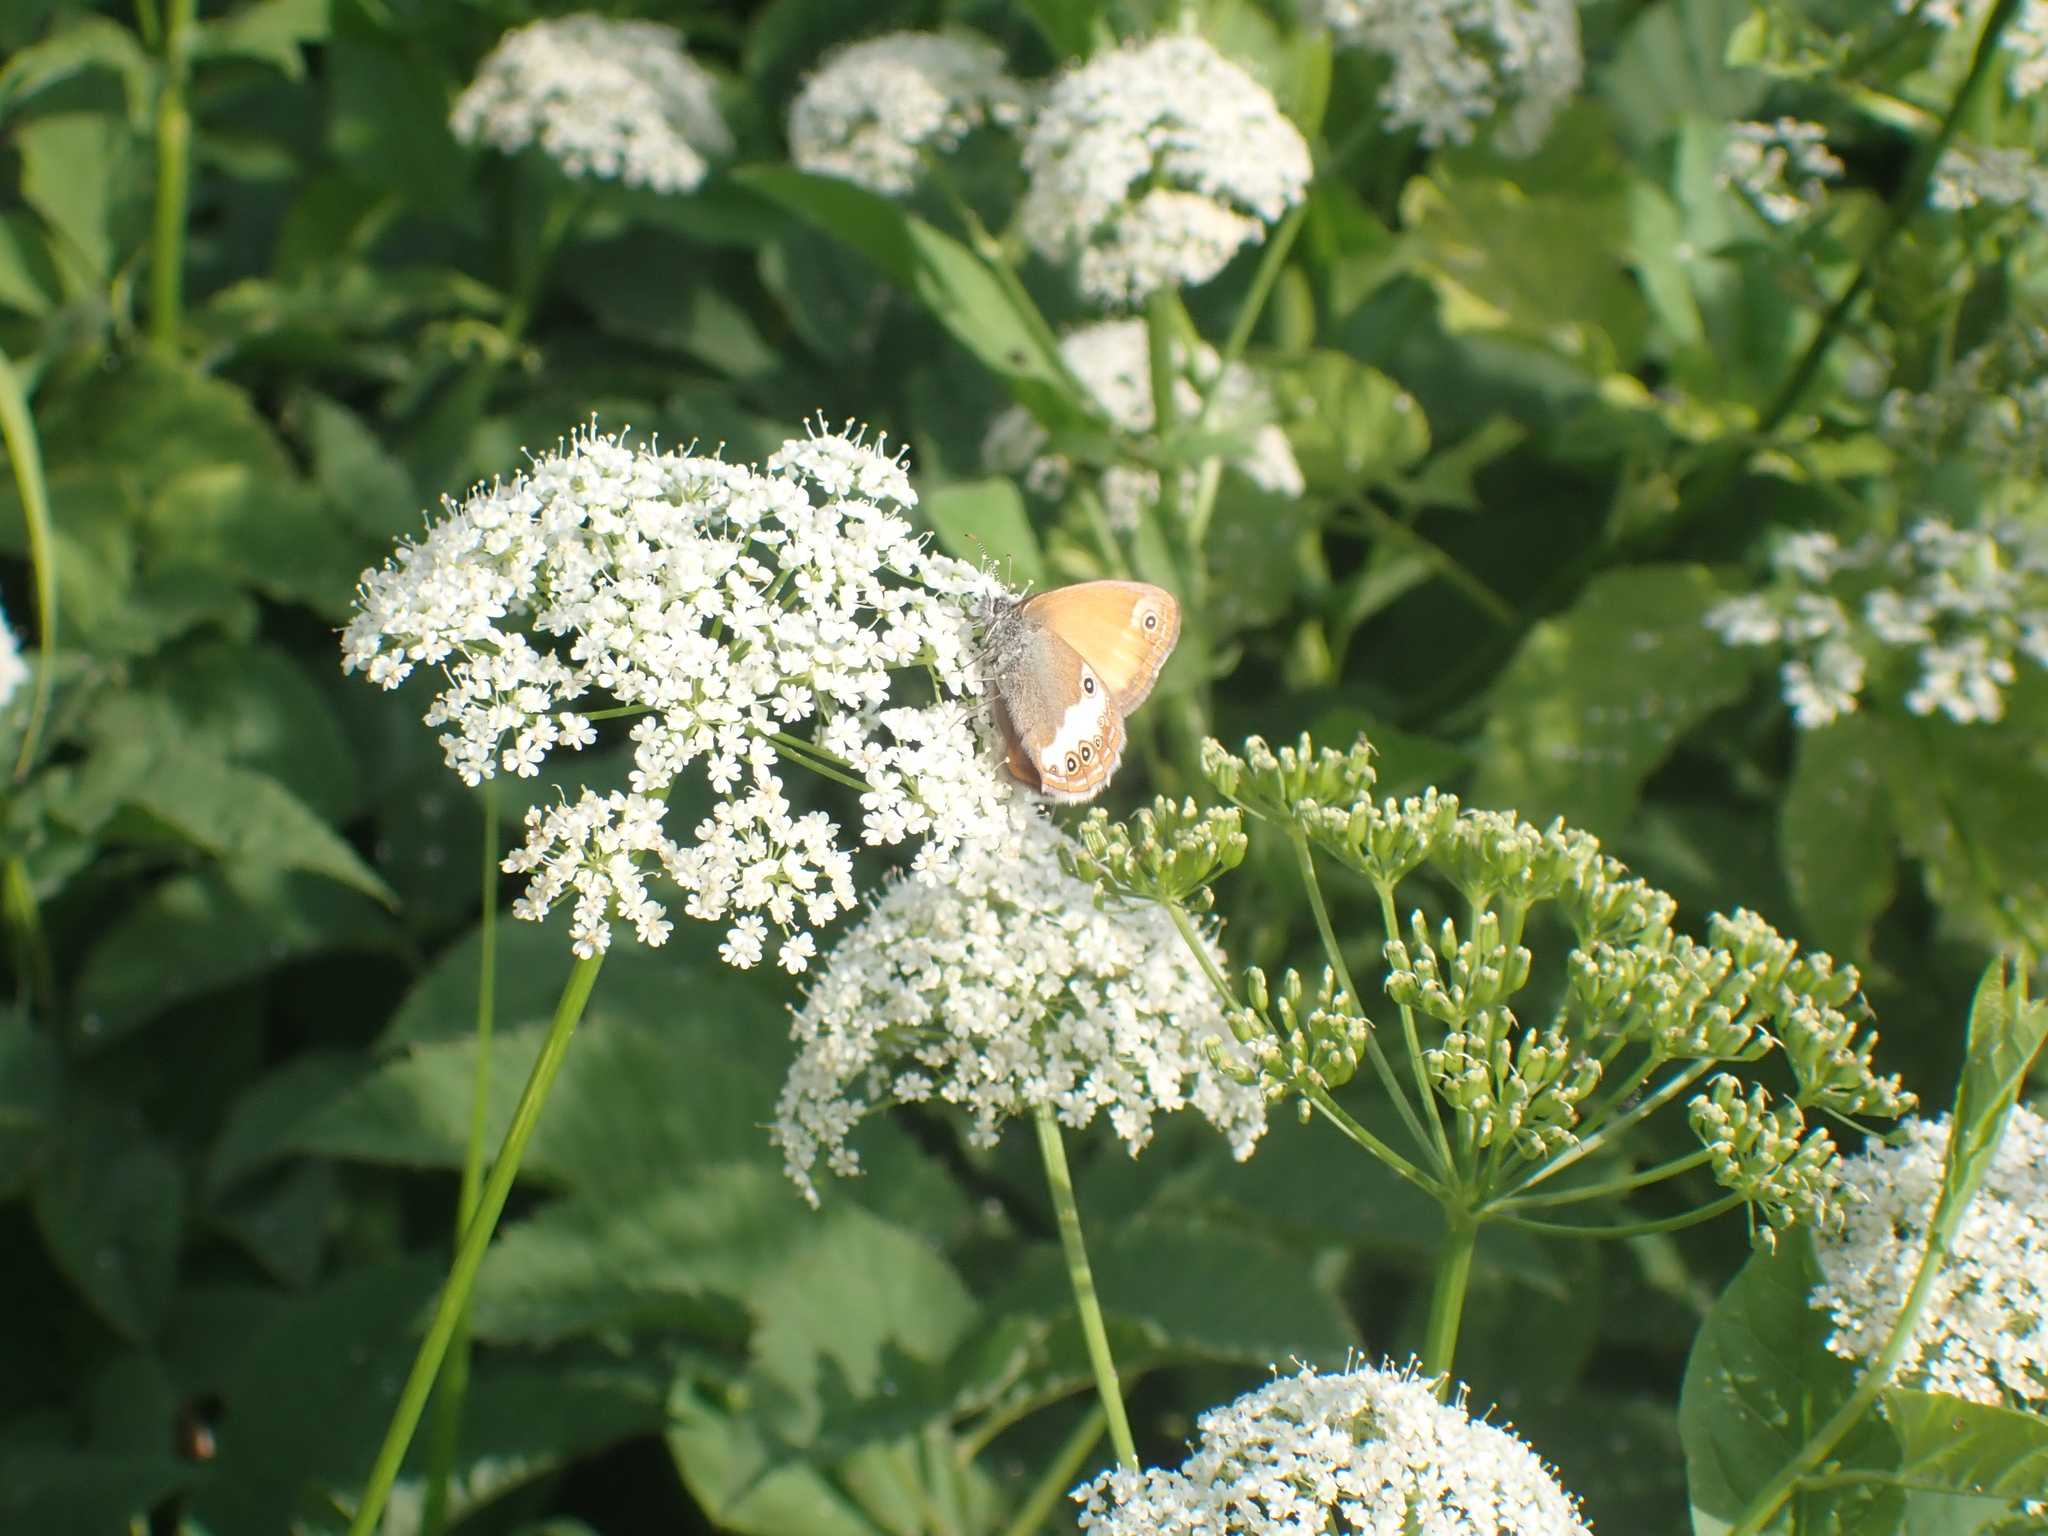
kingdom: Animalia
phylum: Arthropoda
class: Insecta
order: Lepidoptera
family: Nymphalidae
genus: Coenonympha
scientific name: Coenonympha arcania
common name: Pearly heath
